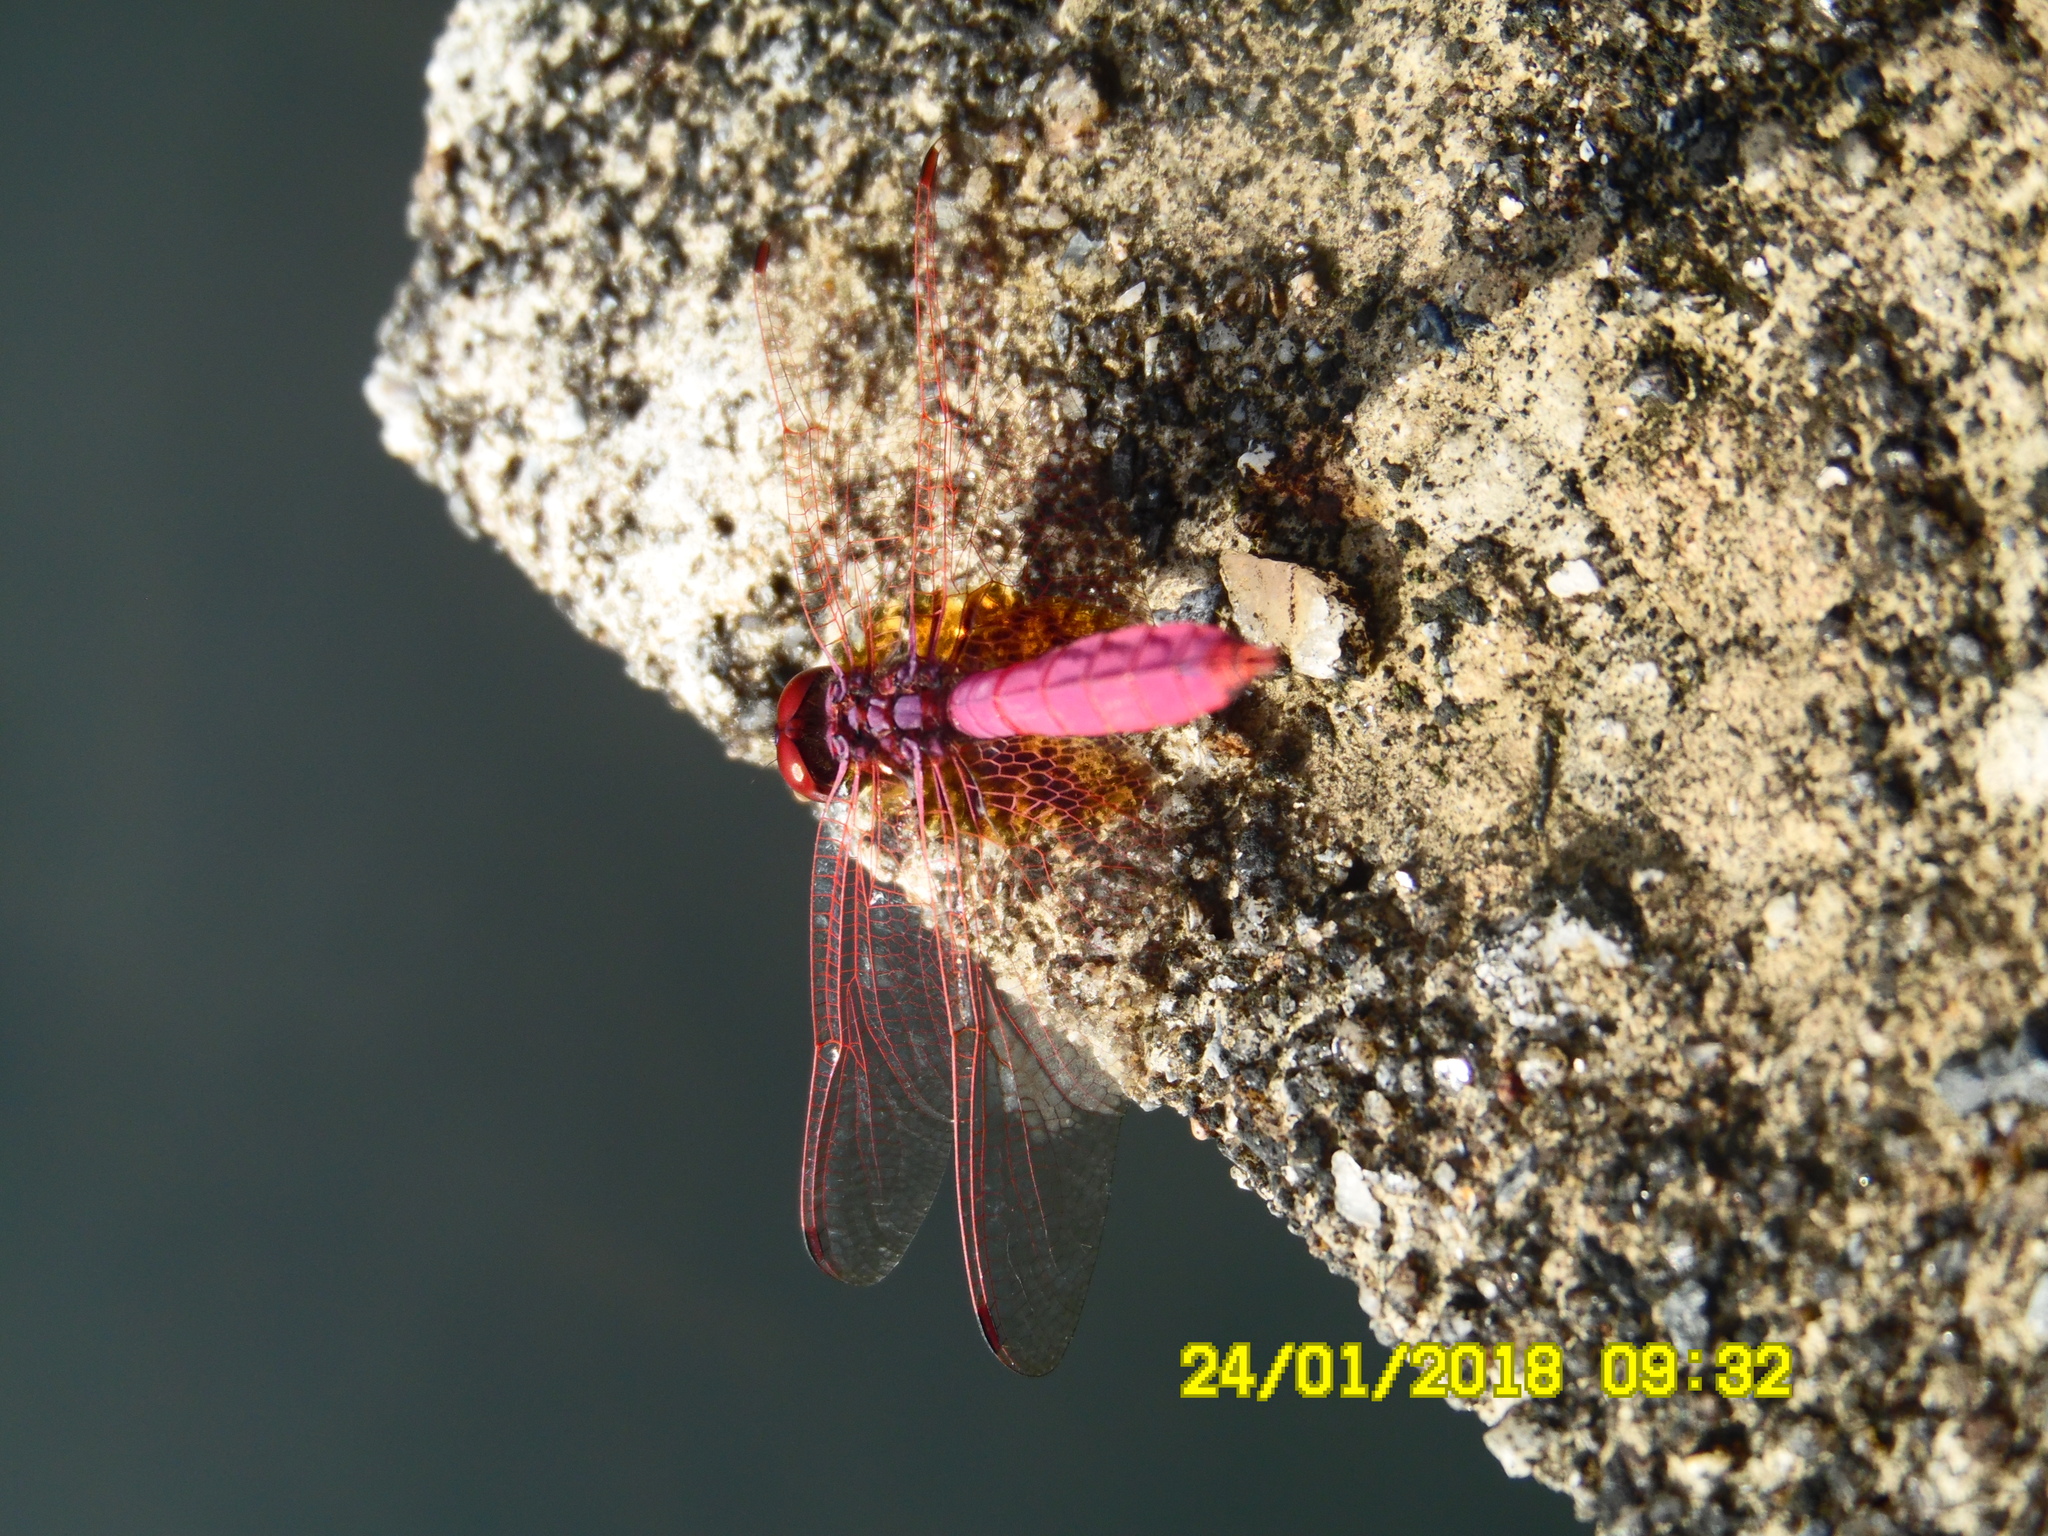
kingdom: Animalia
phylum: Arthropoda
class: Insecta
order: Odonata
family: Libellulidae
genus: Trithemis
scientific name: Trithemis aurora
